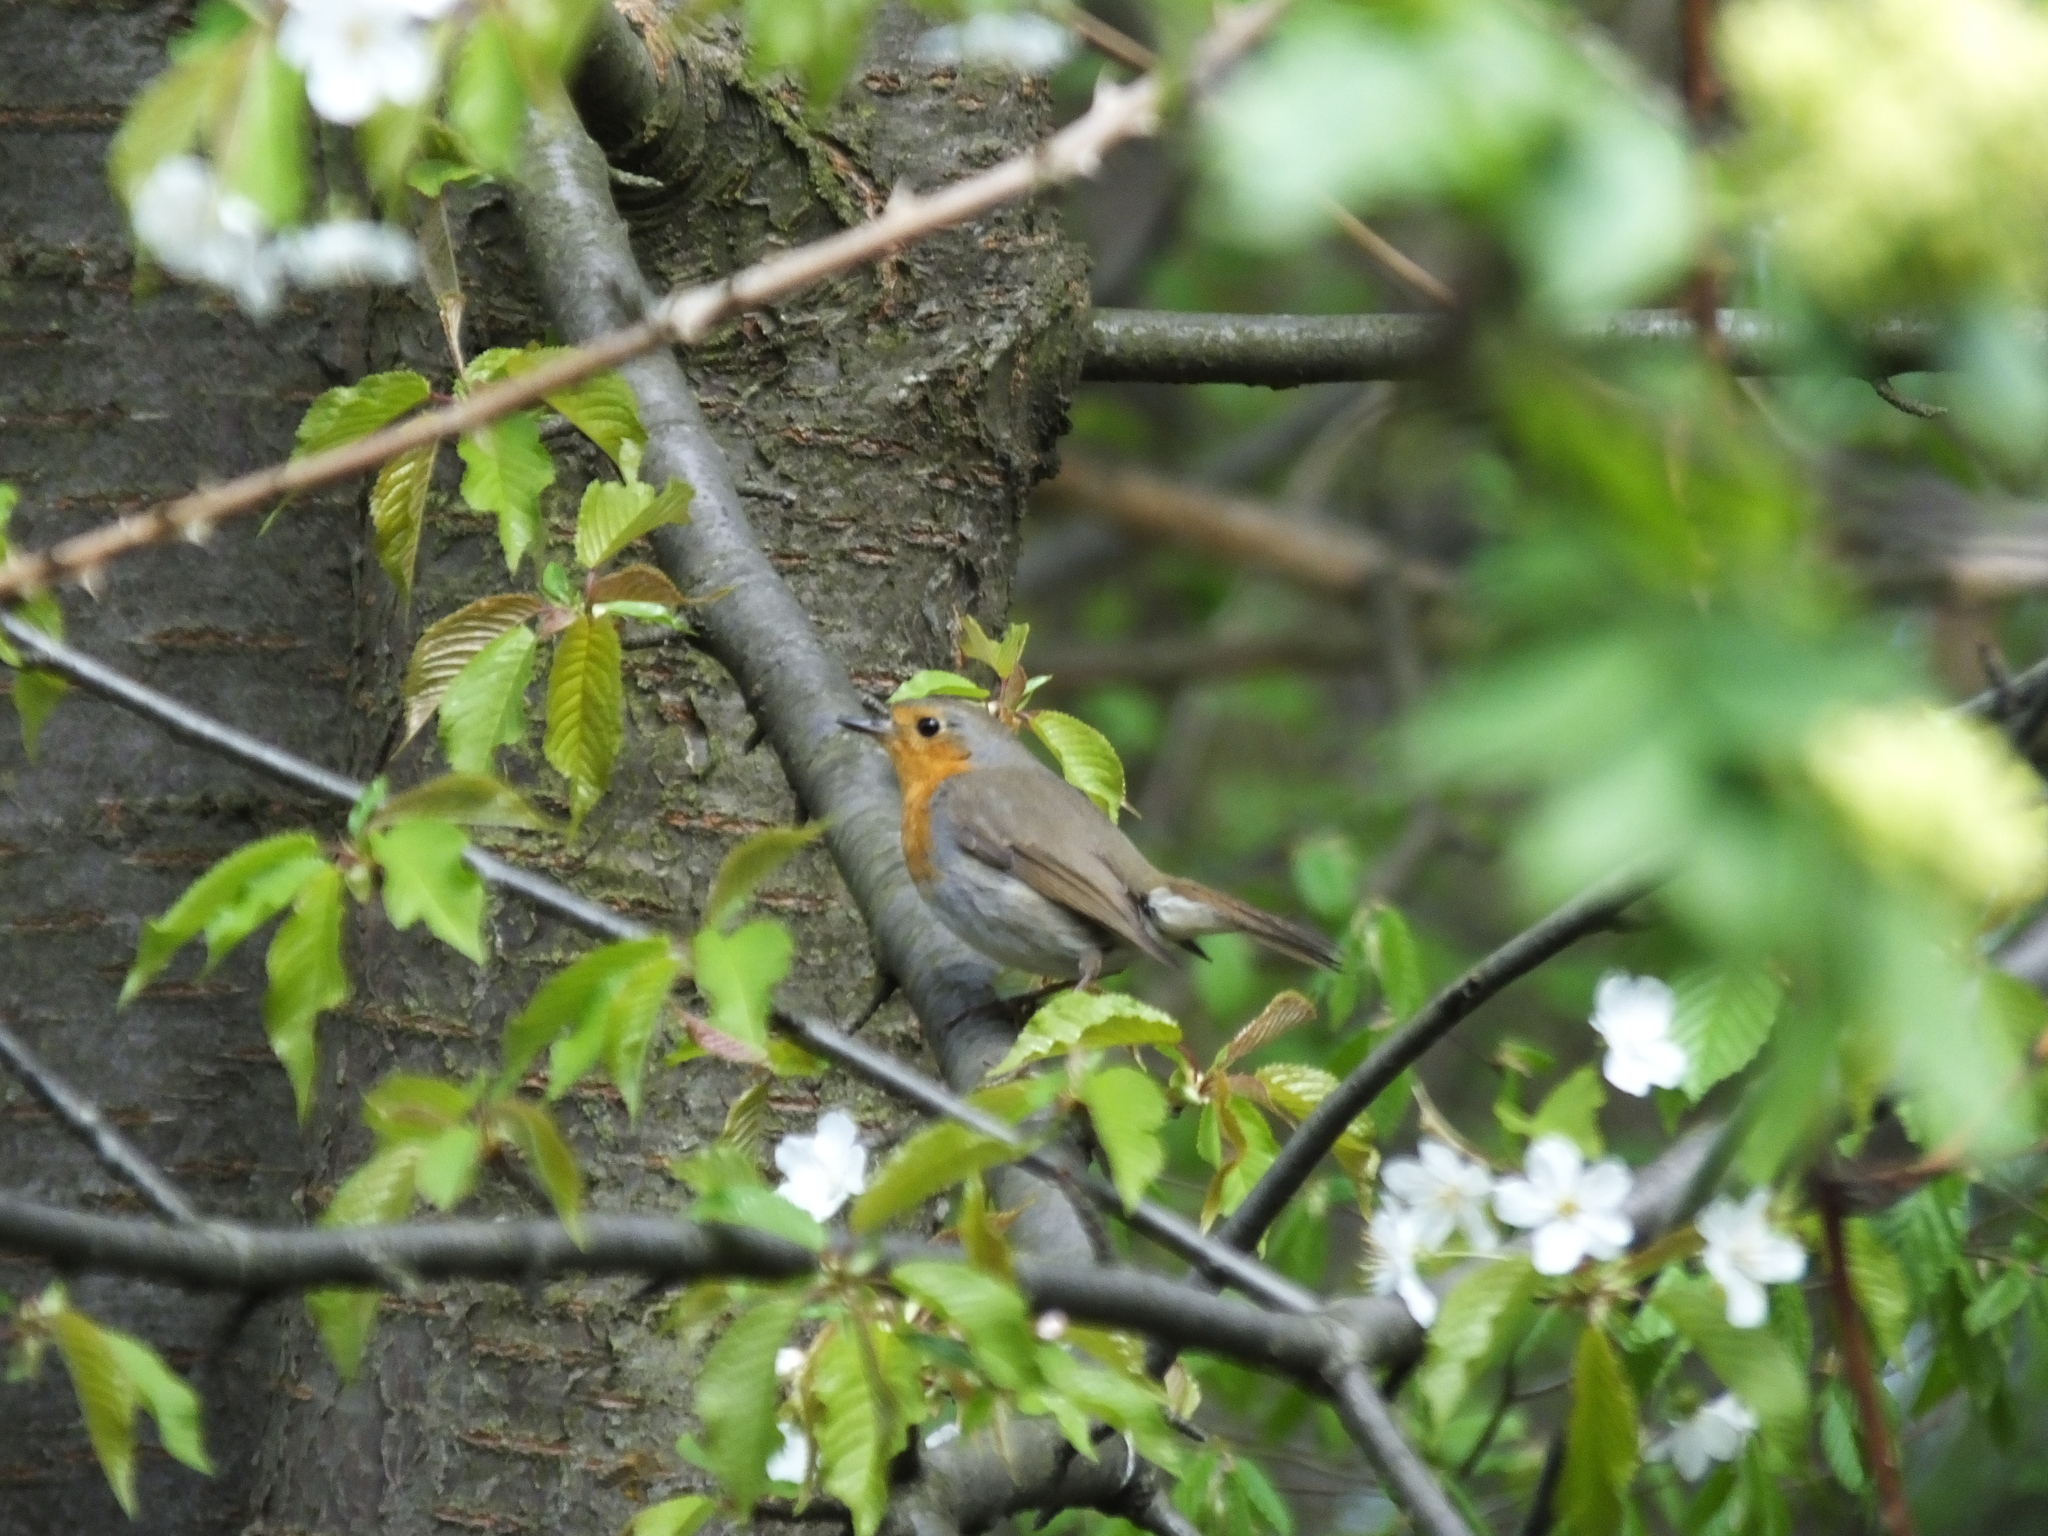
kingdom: Animalia
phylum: Chordata
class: Aves
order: Passeriformes
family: Muscicapidae
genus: Erithacus
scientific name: Erithacus rubecula
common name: European robin
